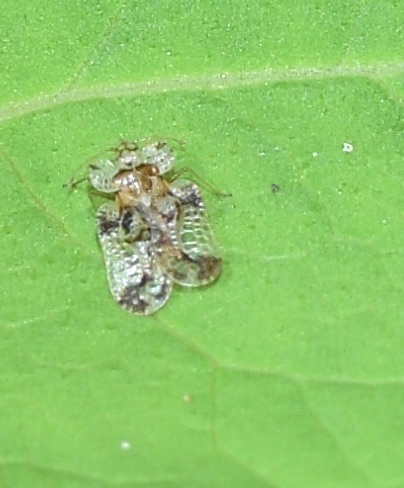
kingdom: Animalia
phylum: Arthropoda
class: Insecta
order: Hemiptera
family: Tingidae
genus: Corythucha
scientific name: Corythucha marmorata
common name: Chrysanthemum lace bug
